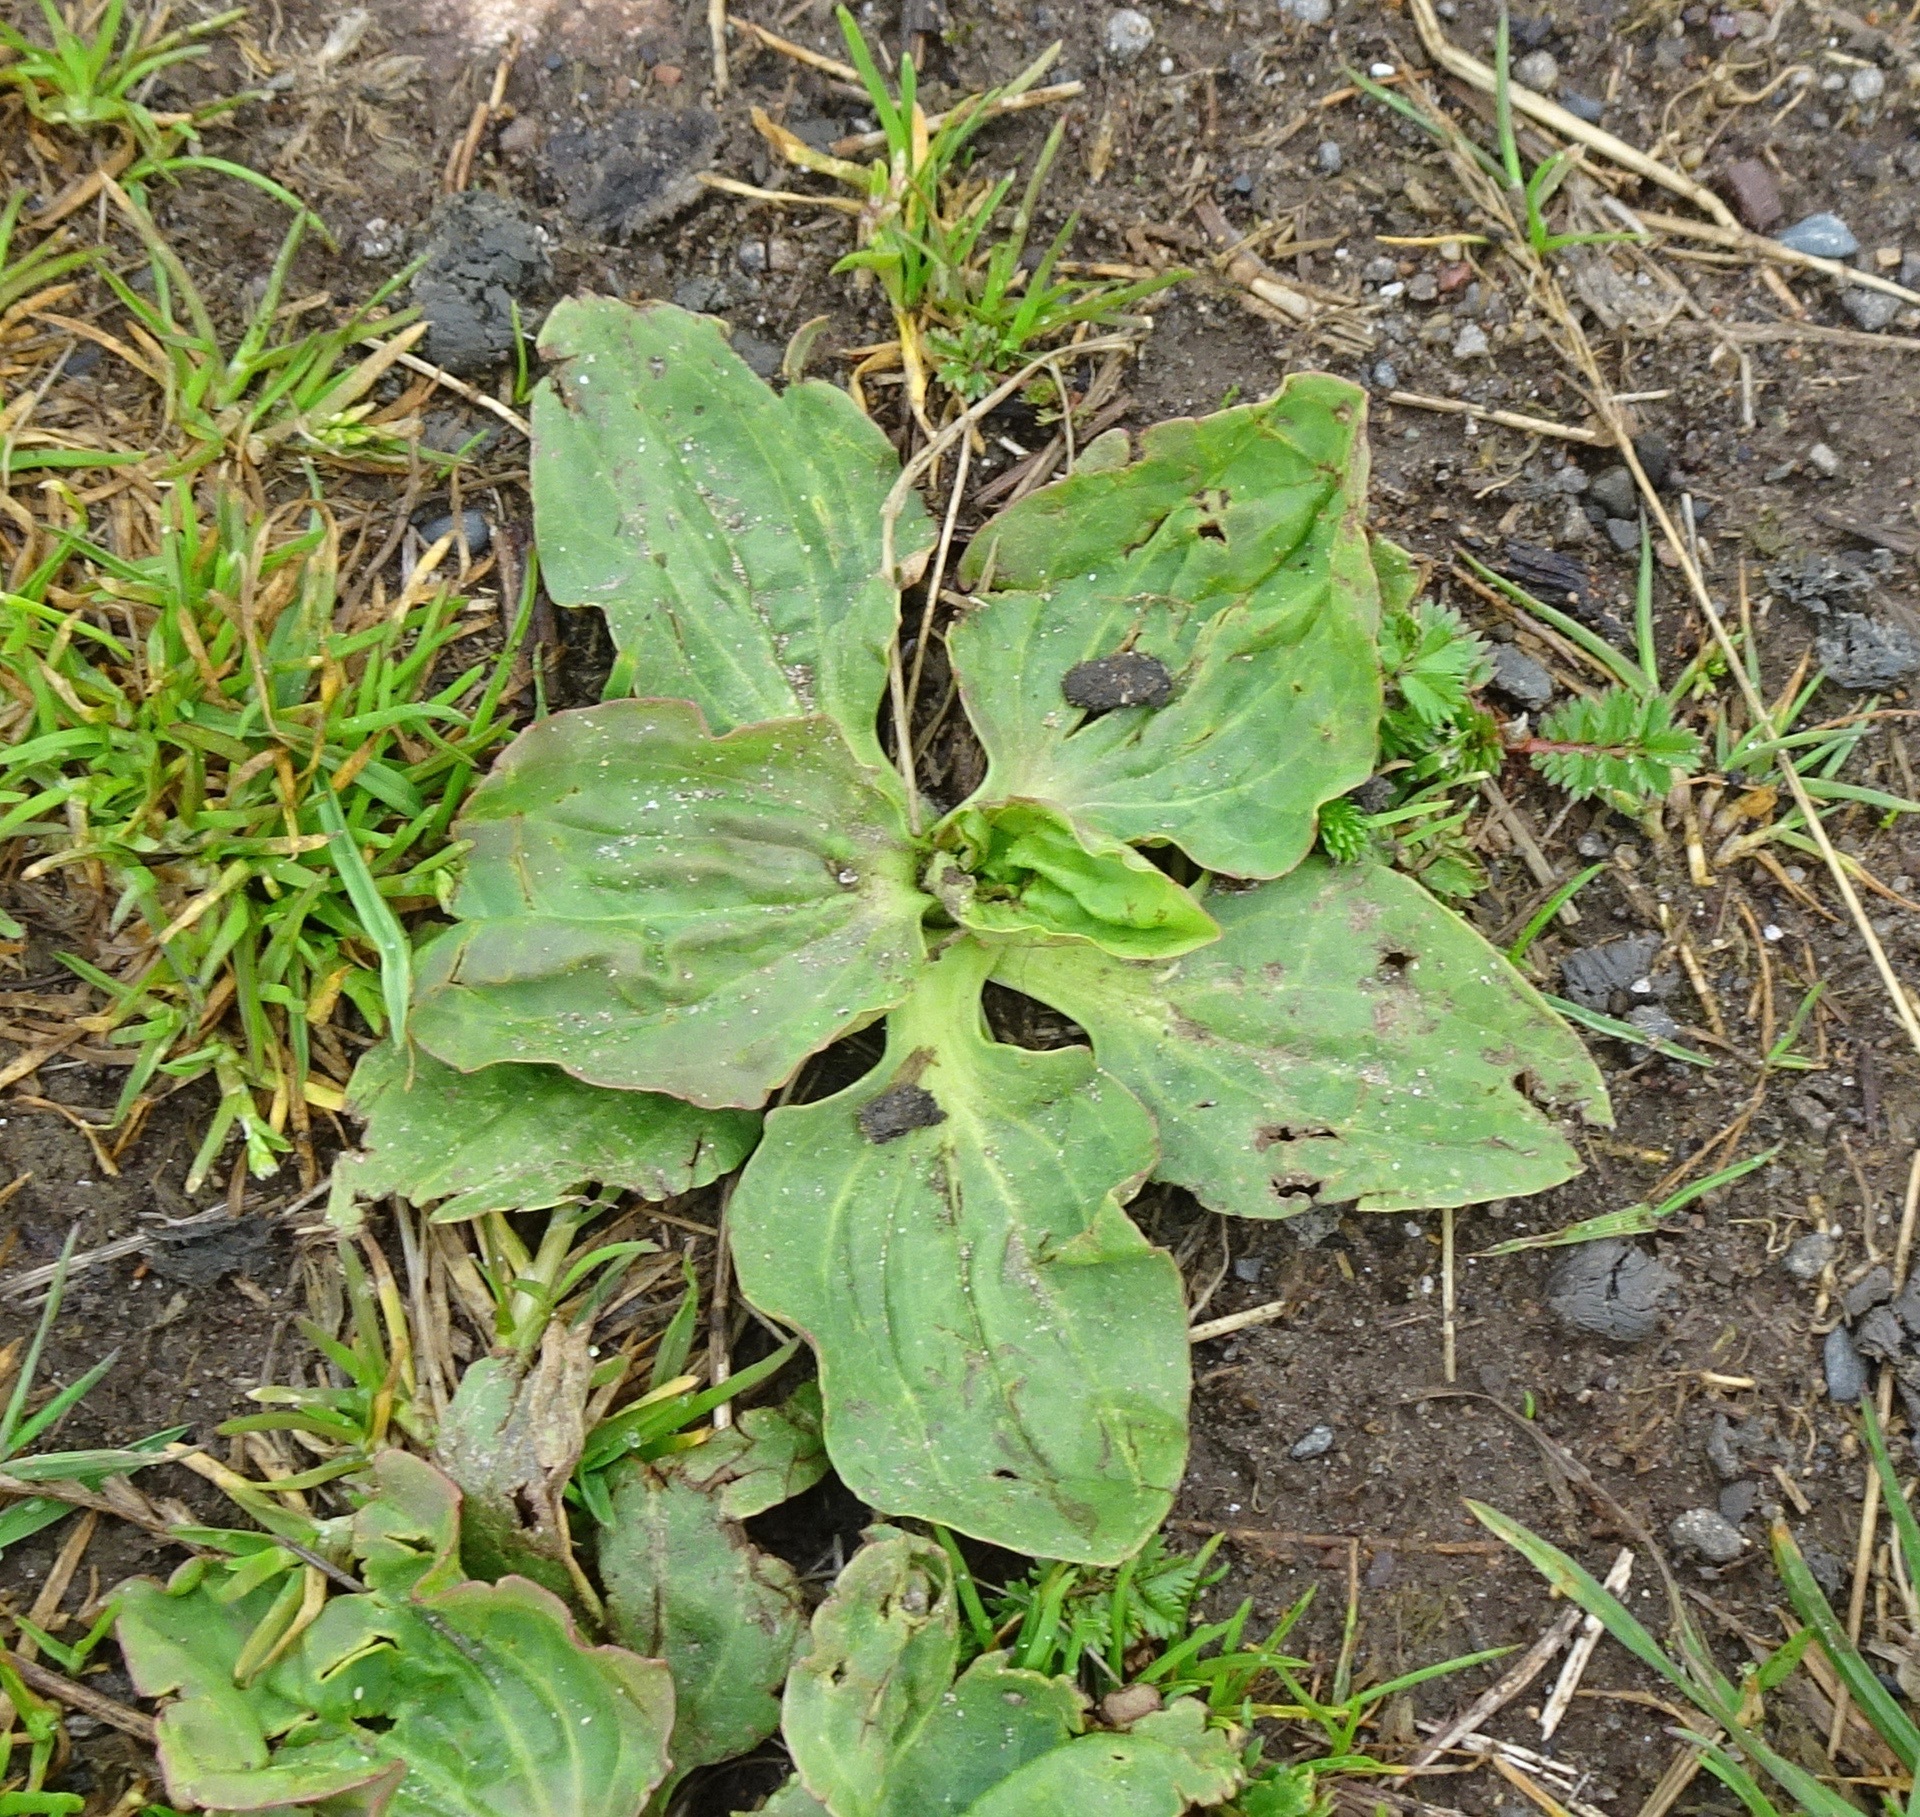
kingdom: Plantae
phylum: Tracheophyta
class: Magnoliopsida
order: Lamiales
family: Plantaginaceae
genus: Plantago
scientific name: Plantago major
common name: Common plantain
